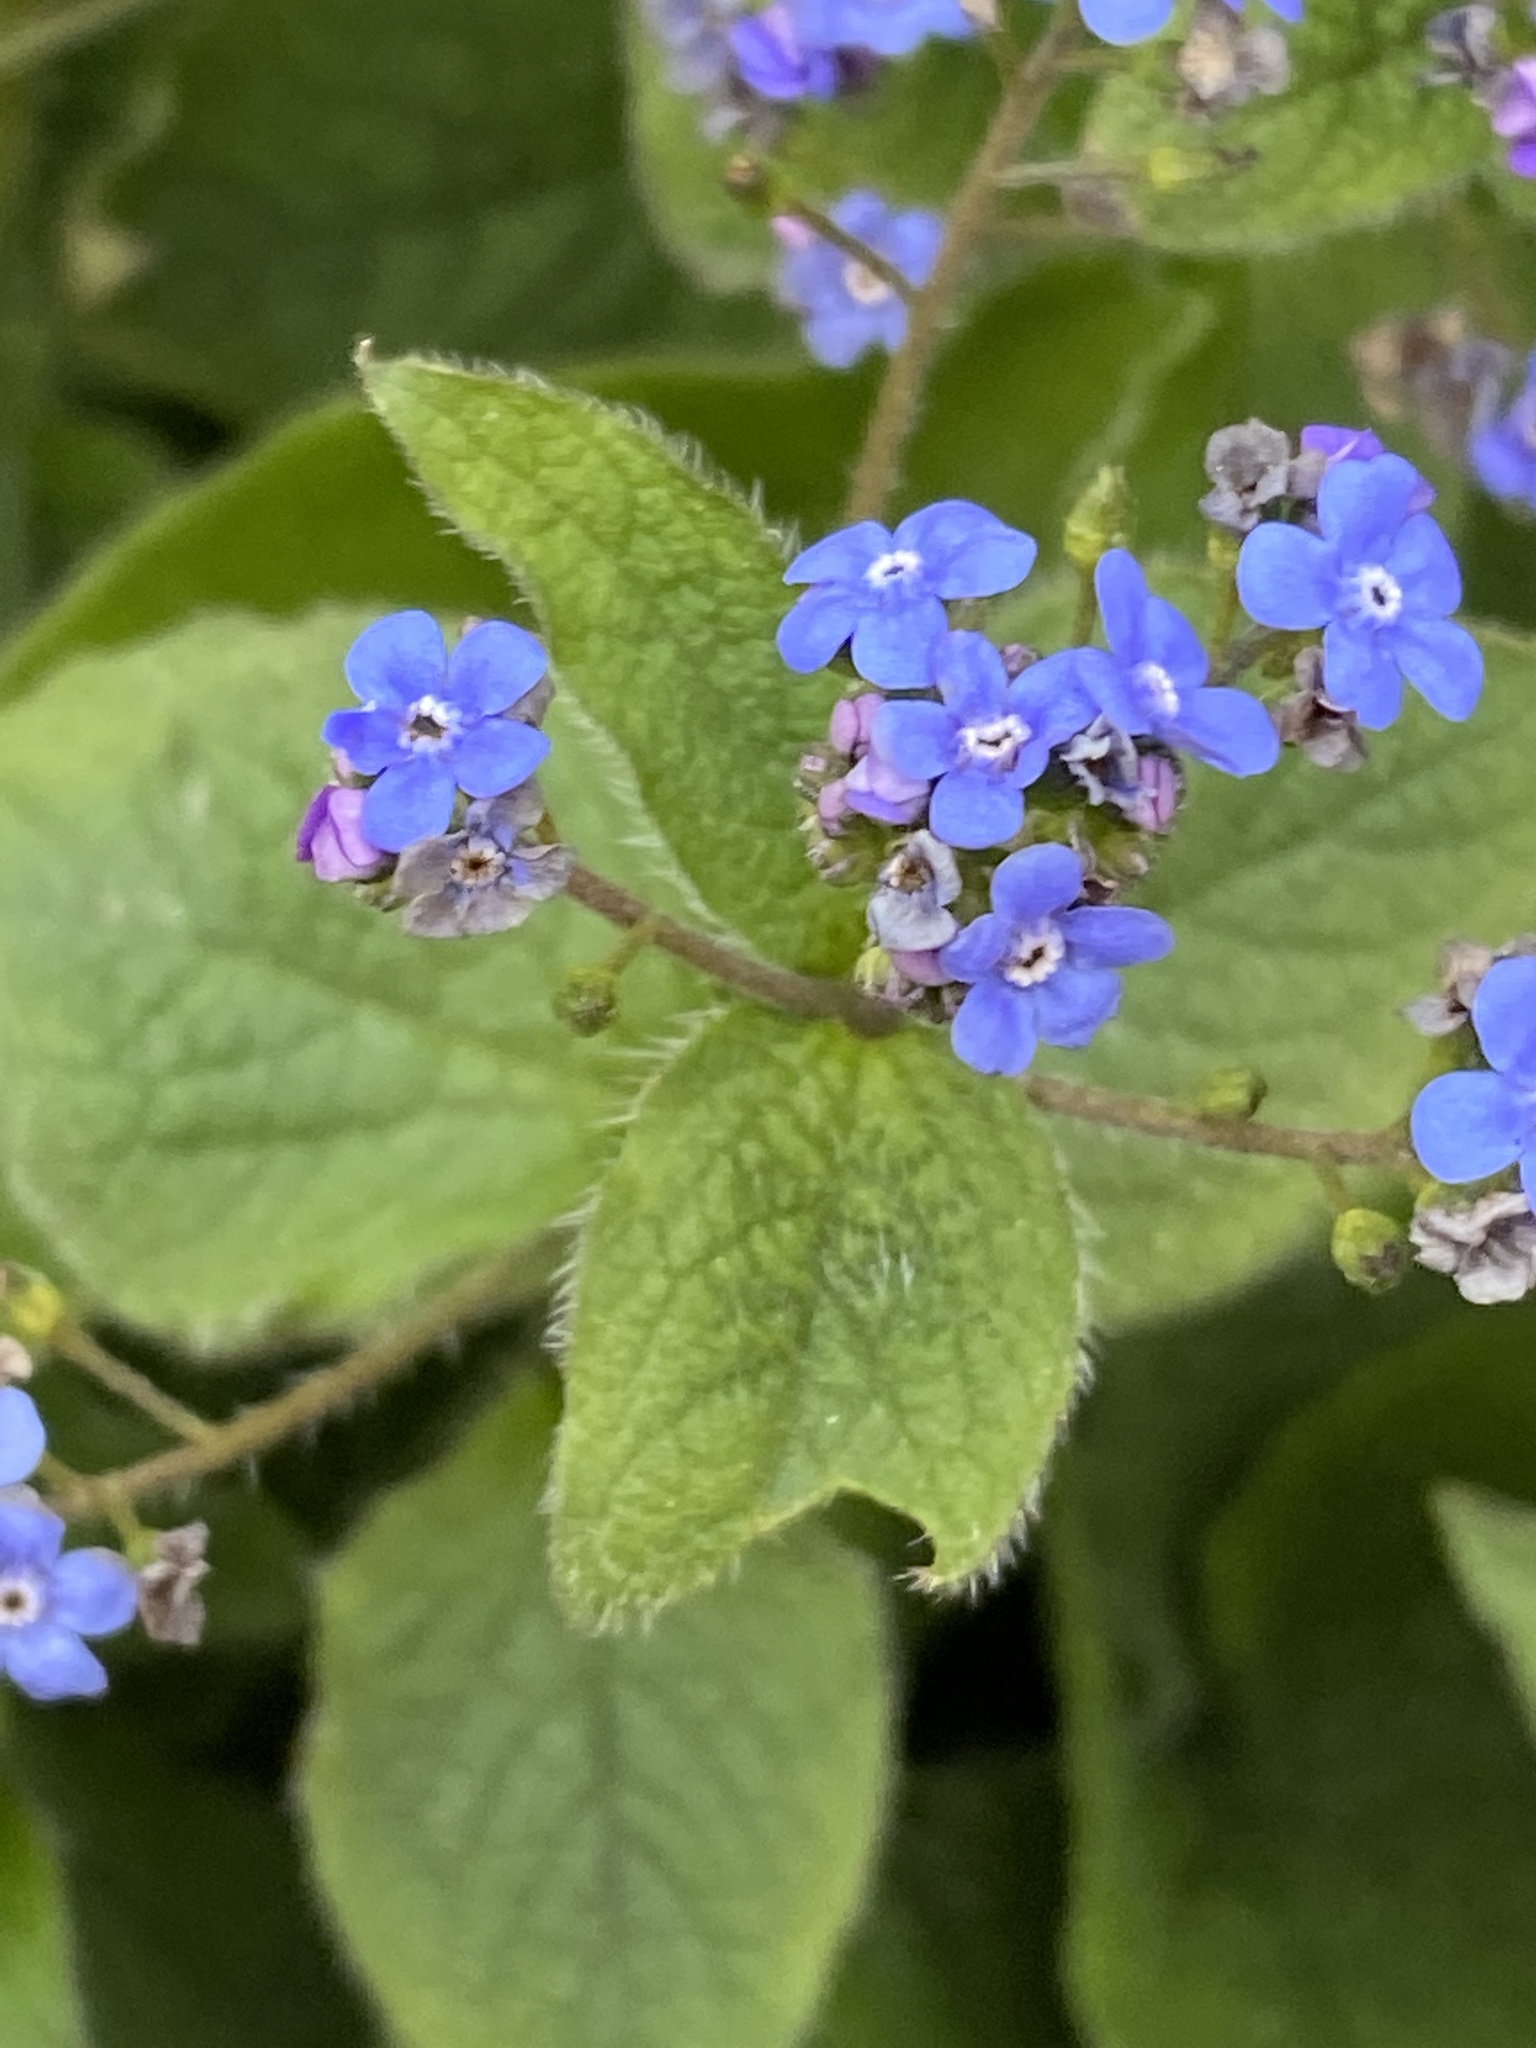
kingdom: Plantae
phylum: Tracheophyta
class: Magnoliopsida
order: Boraginales
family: Boraginaceae
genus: Pentaglottis
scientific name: Pentaglottis sempervirens
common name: Green alkanet
